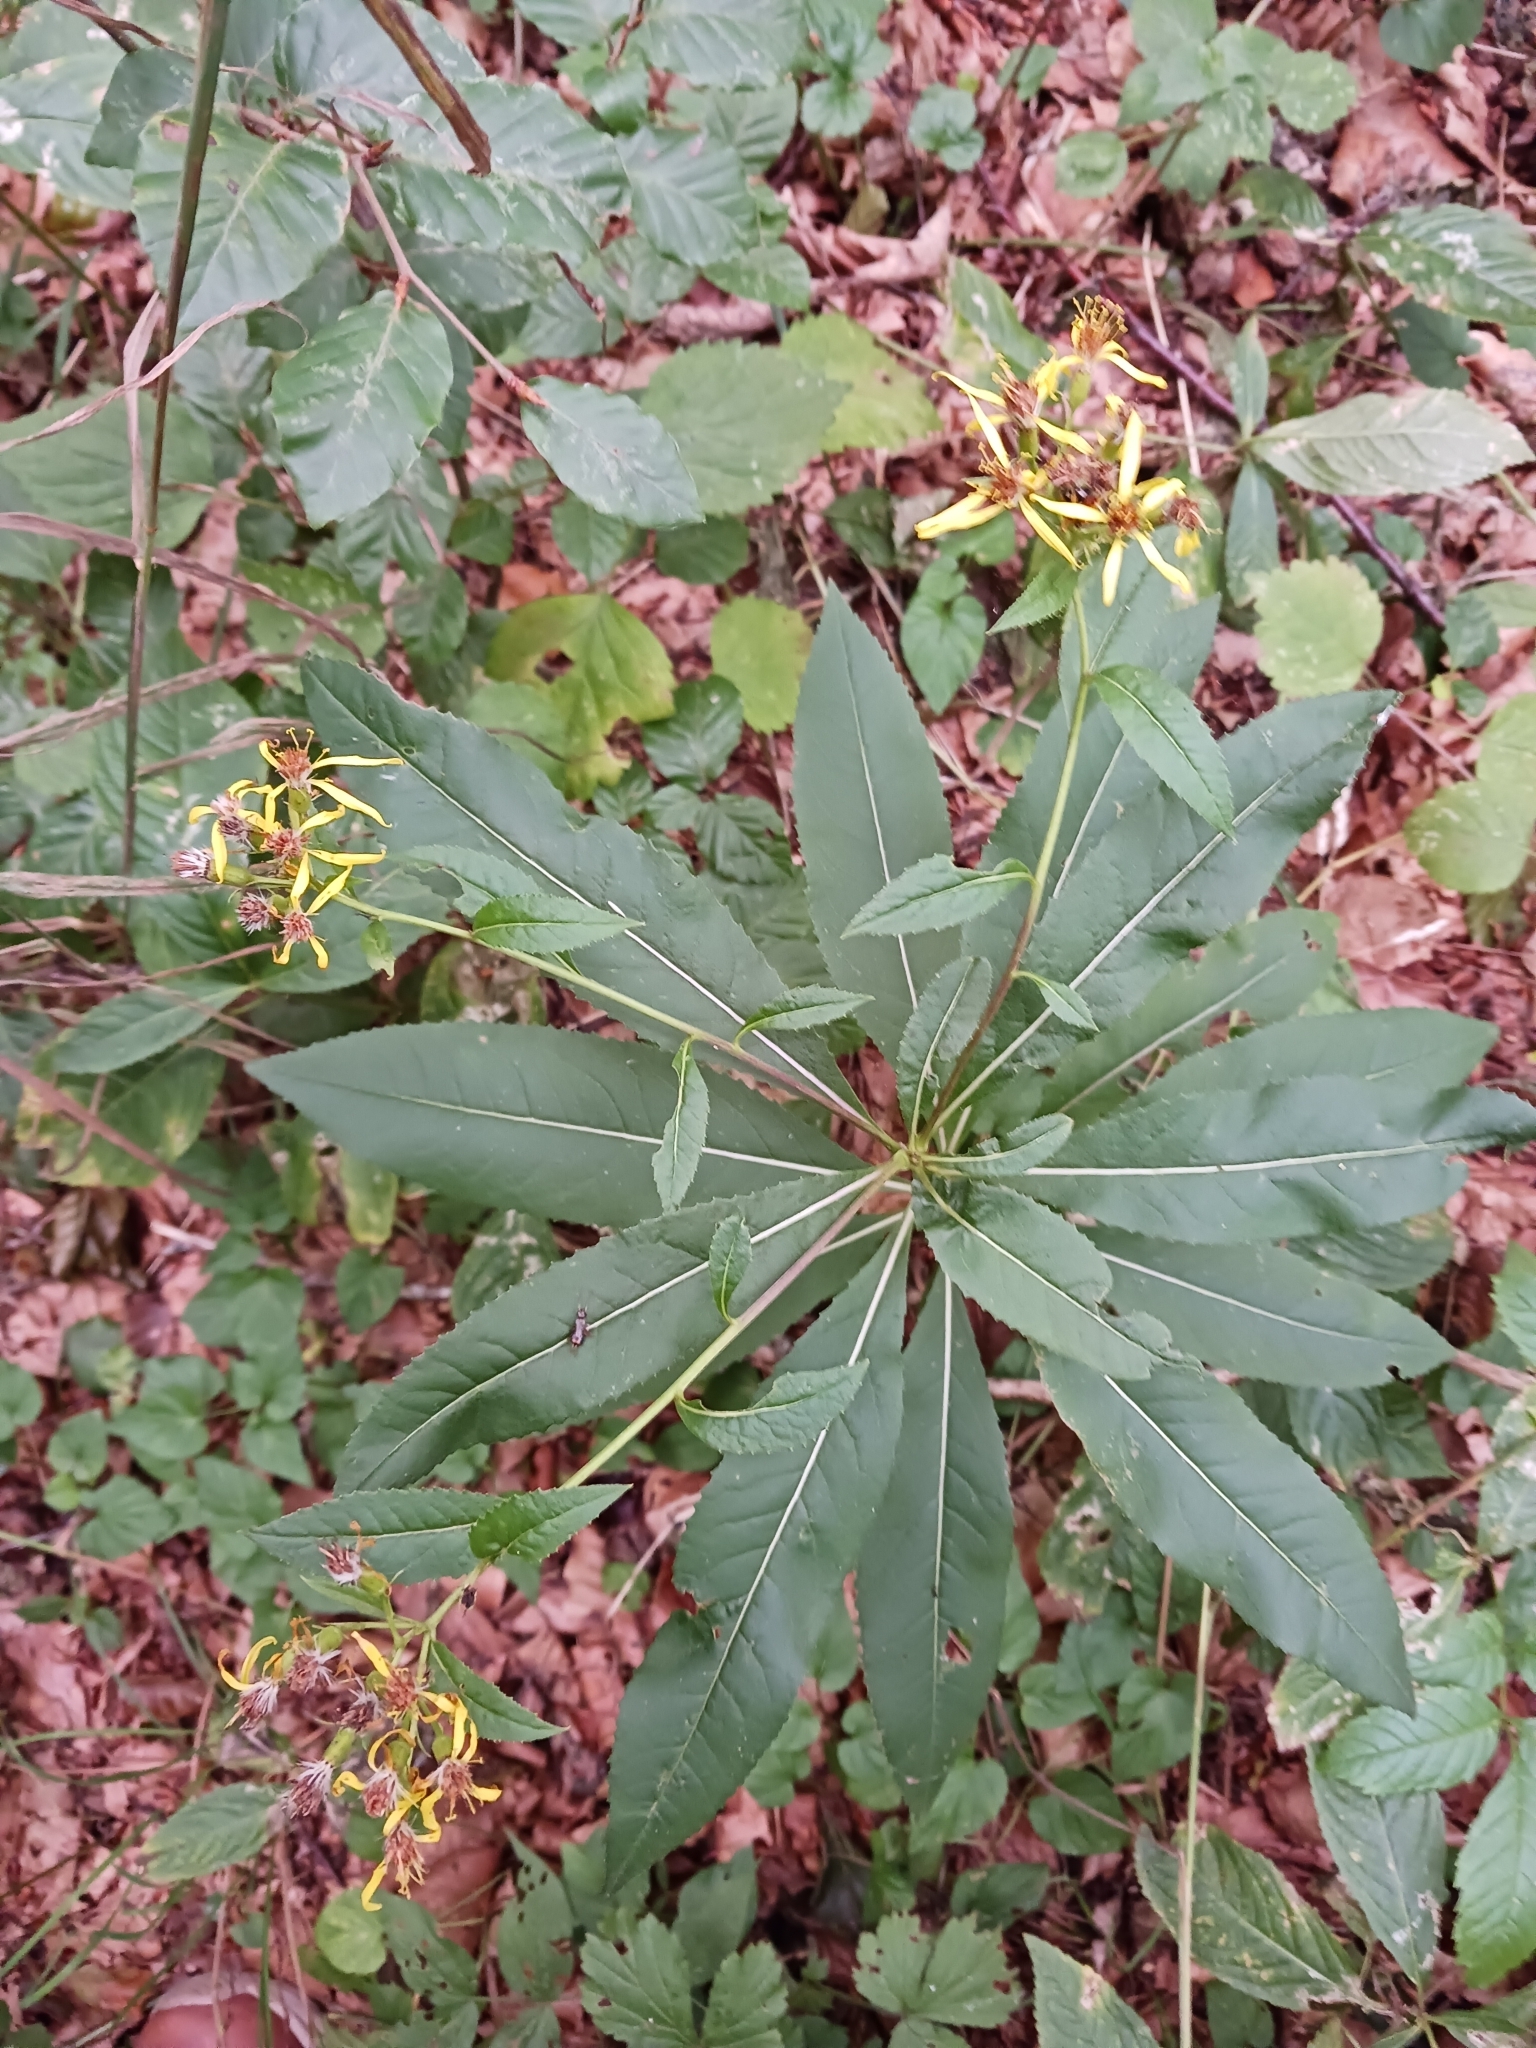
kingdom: Plantae
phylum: Tracheophyta
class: Magnoliopsida
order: Asterales
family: Asteraceae
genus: Senecio
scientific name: Senecio ovatus
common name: Wood ragwort
